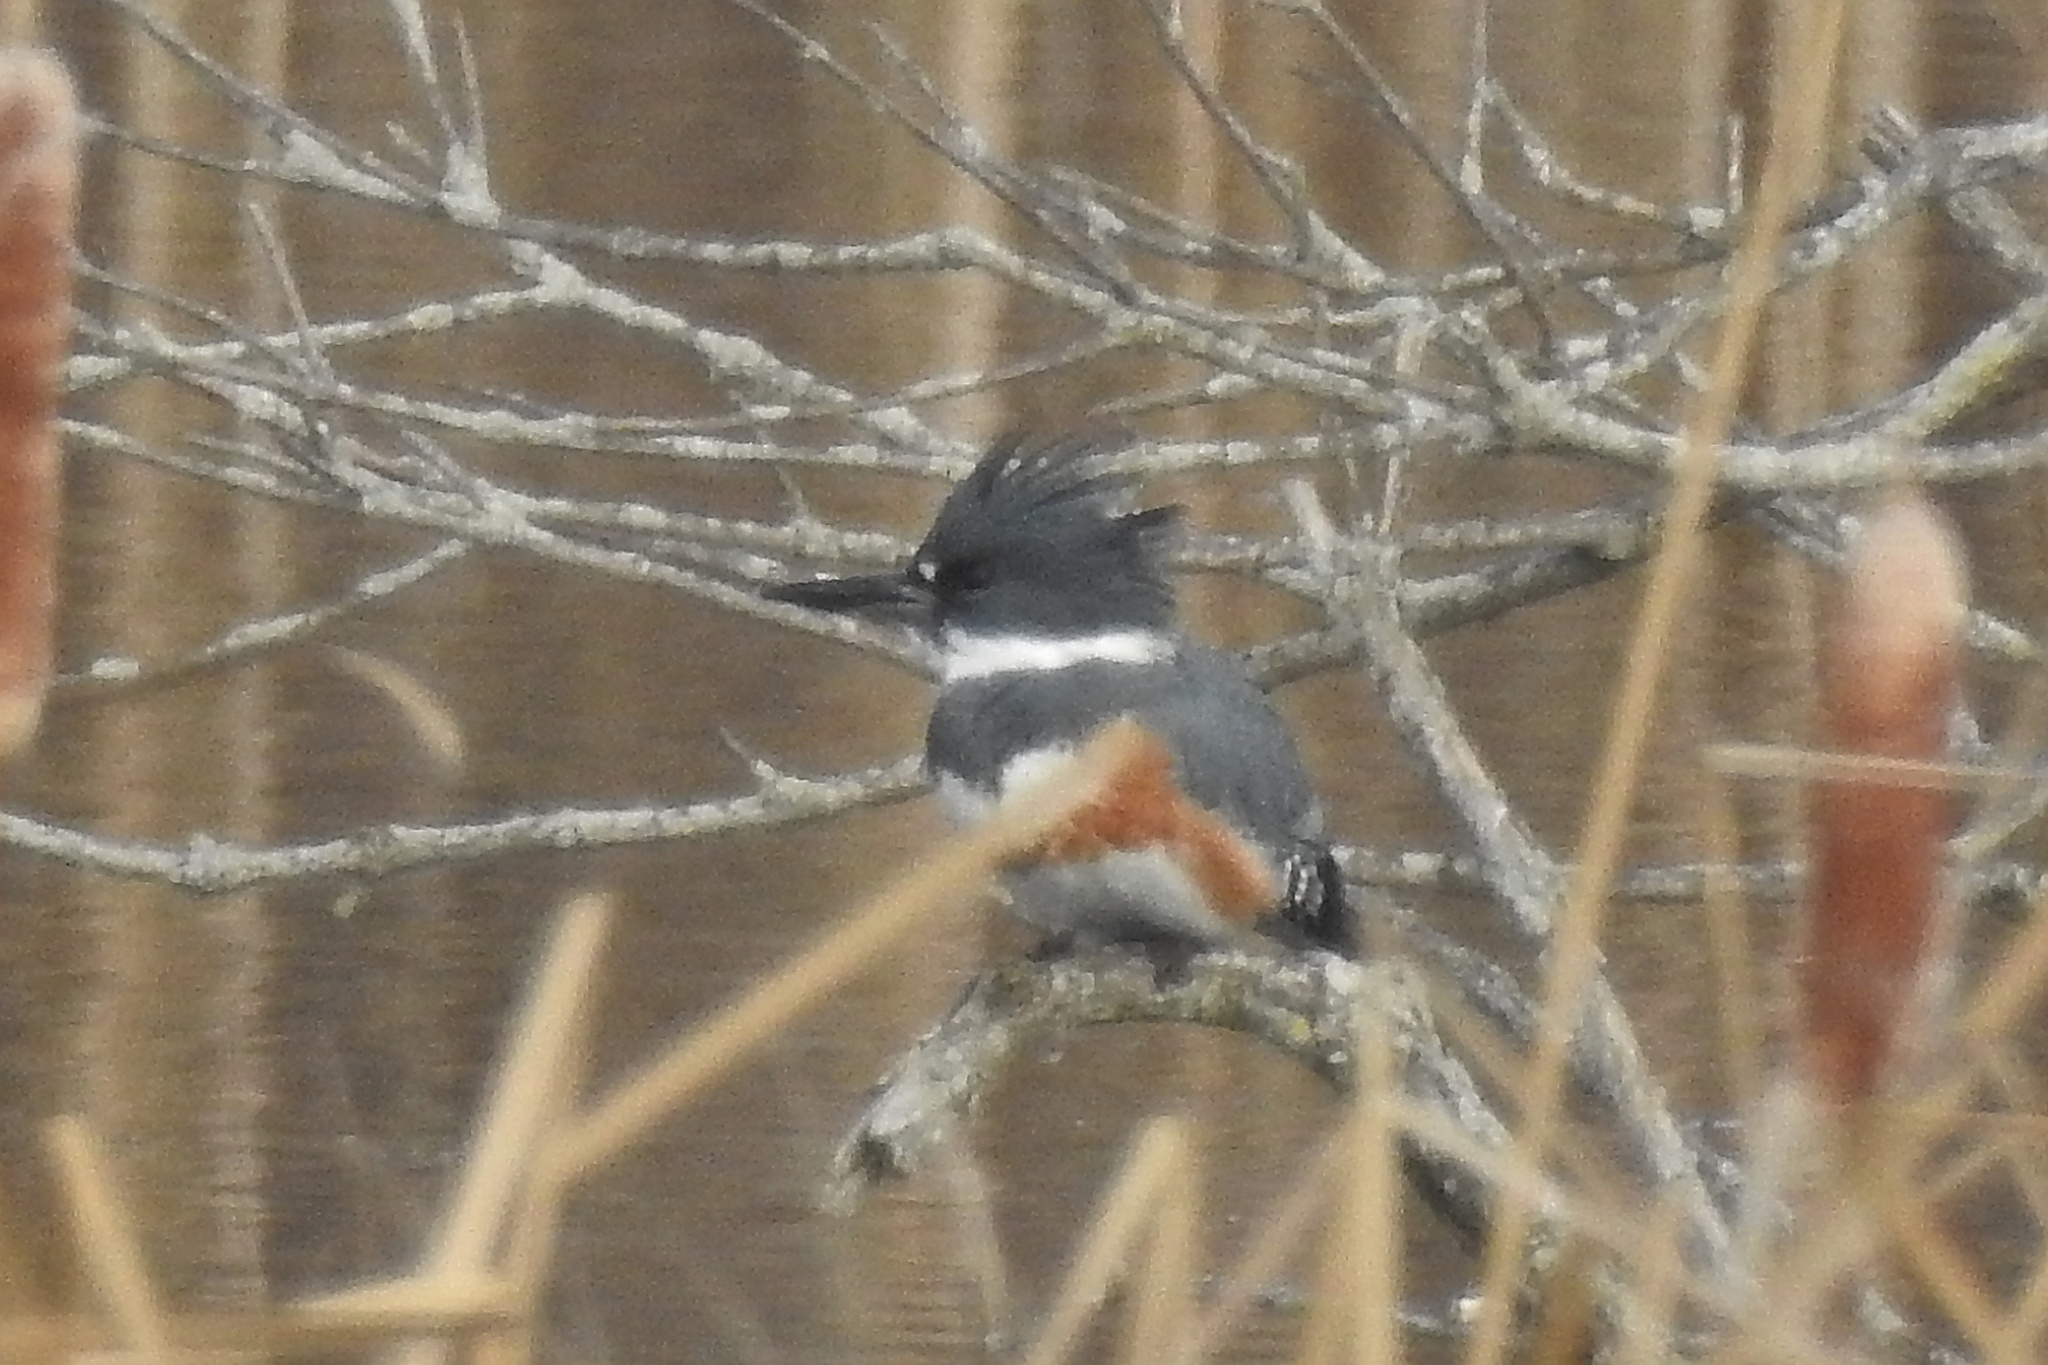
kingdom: Animalia
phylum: Chordata
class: Aves
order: Coraciiformes
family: Alcedinidae
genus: Megaceryle
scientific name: Megaceryle alcyon
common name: Belted kingfisher
